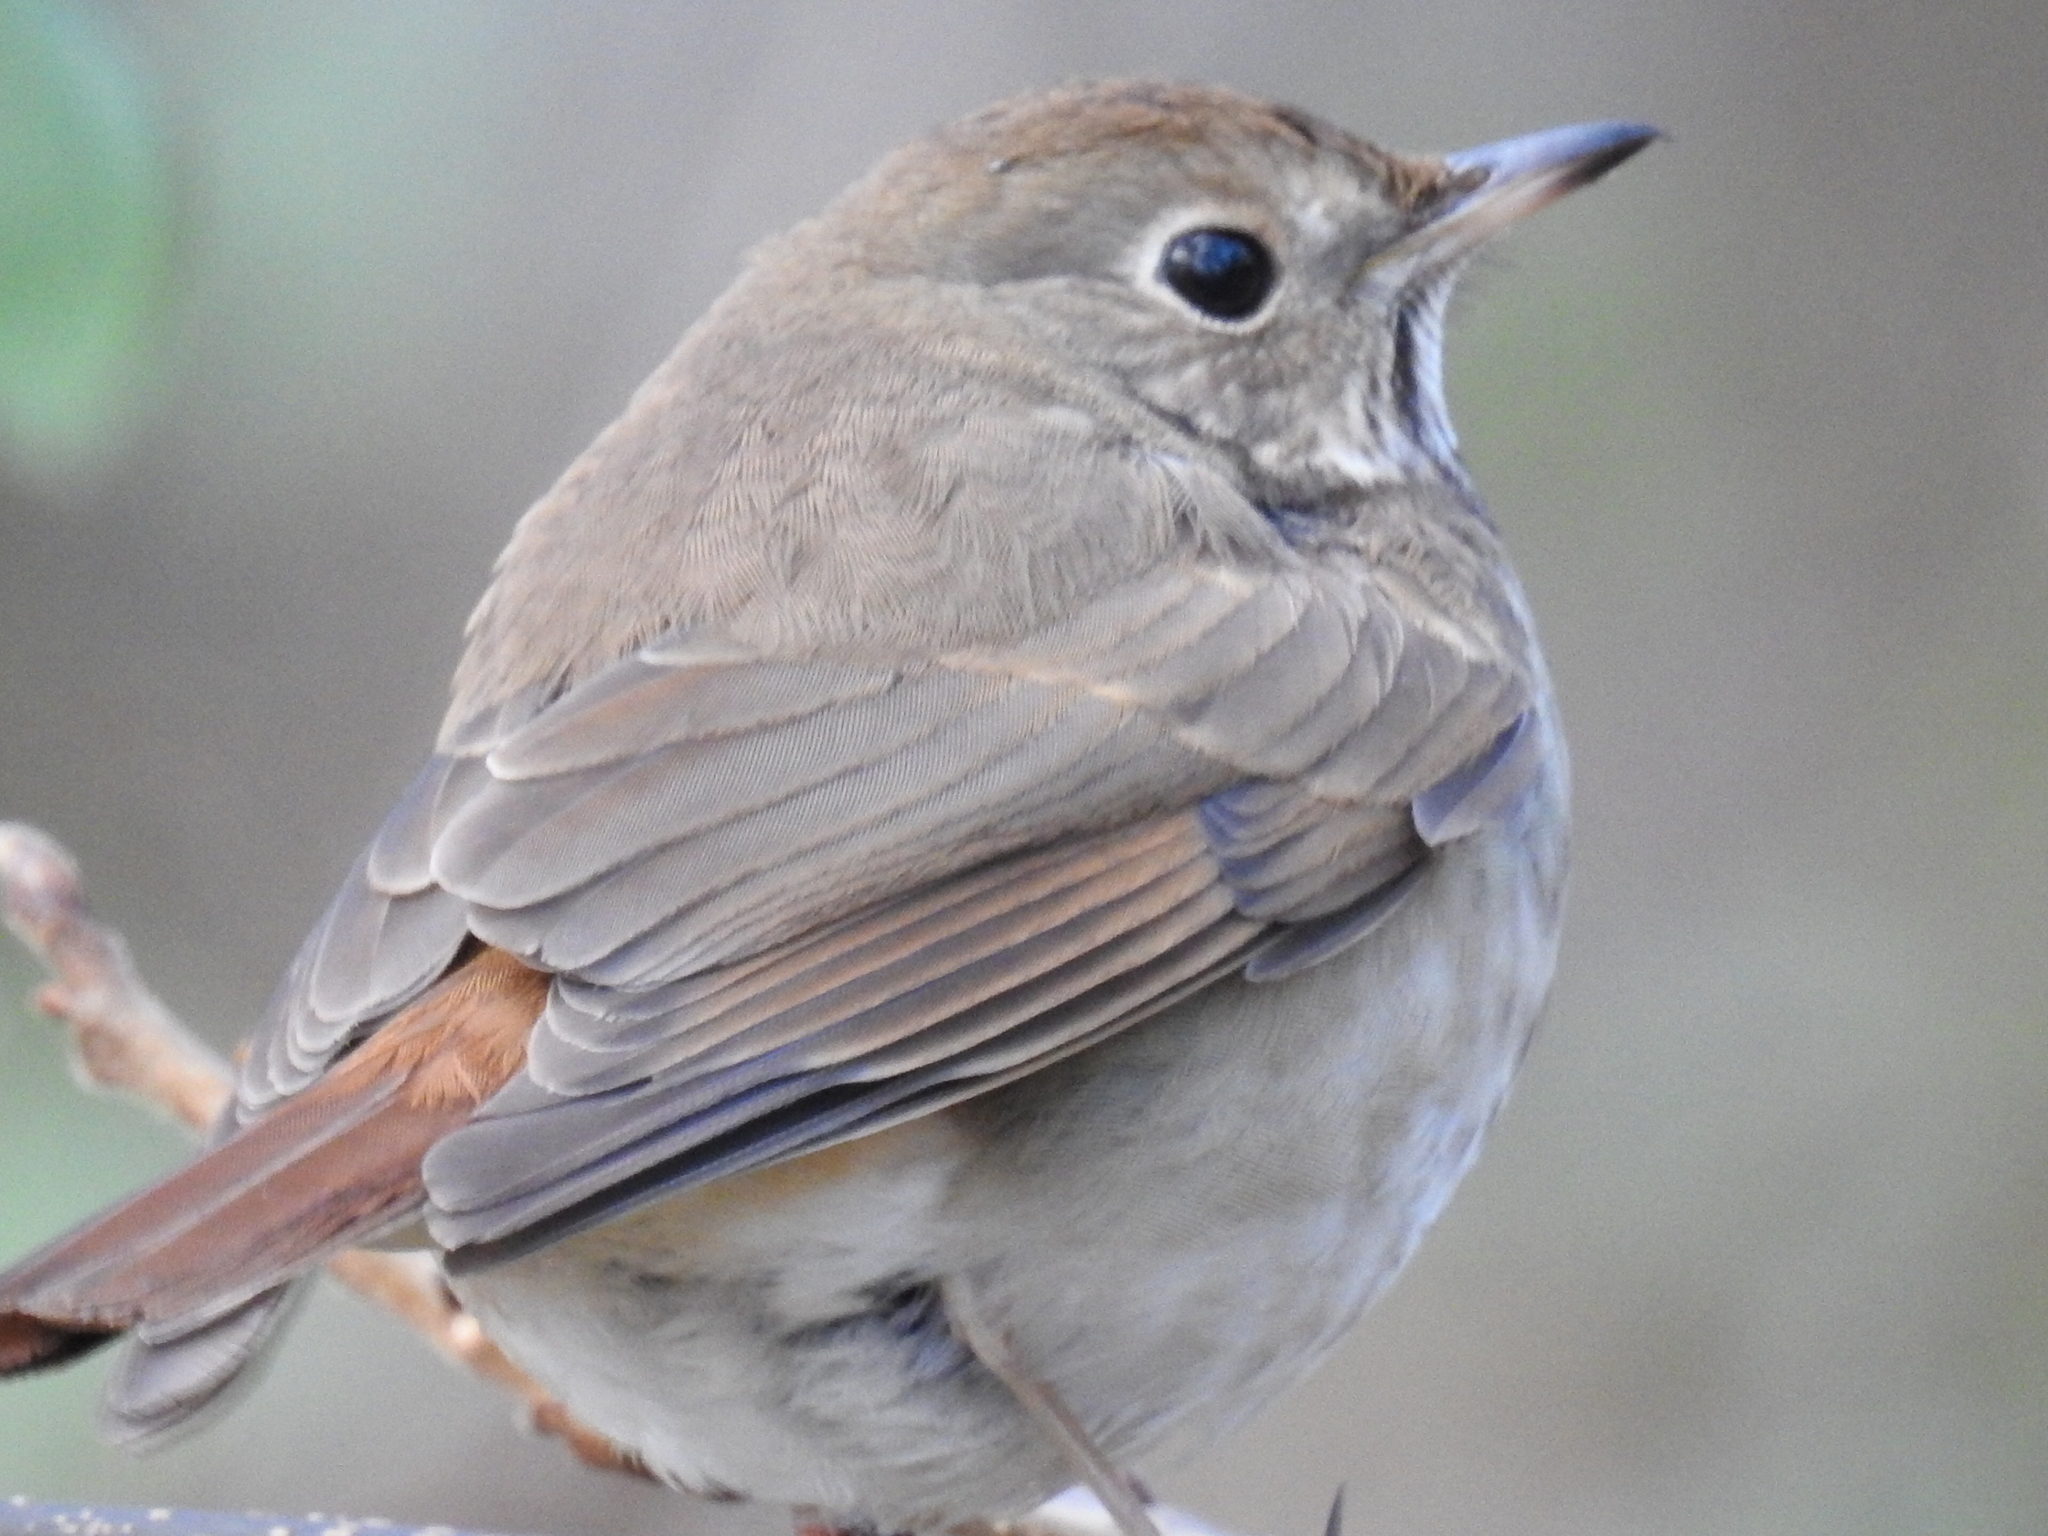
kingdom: Animalia
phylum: Chordata
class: Aves
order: Passeriformes
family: Turdidae
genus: Catharus
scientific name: Catharus guttatus
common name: Hermit thrush
